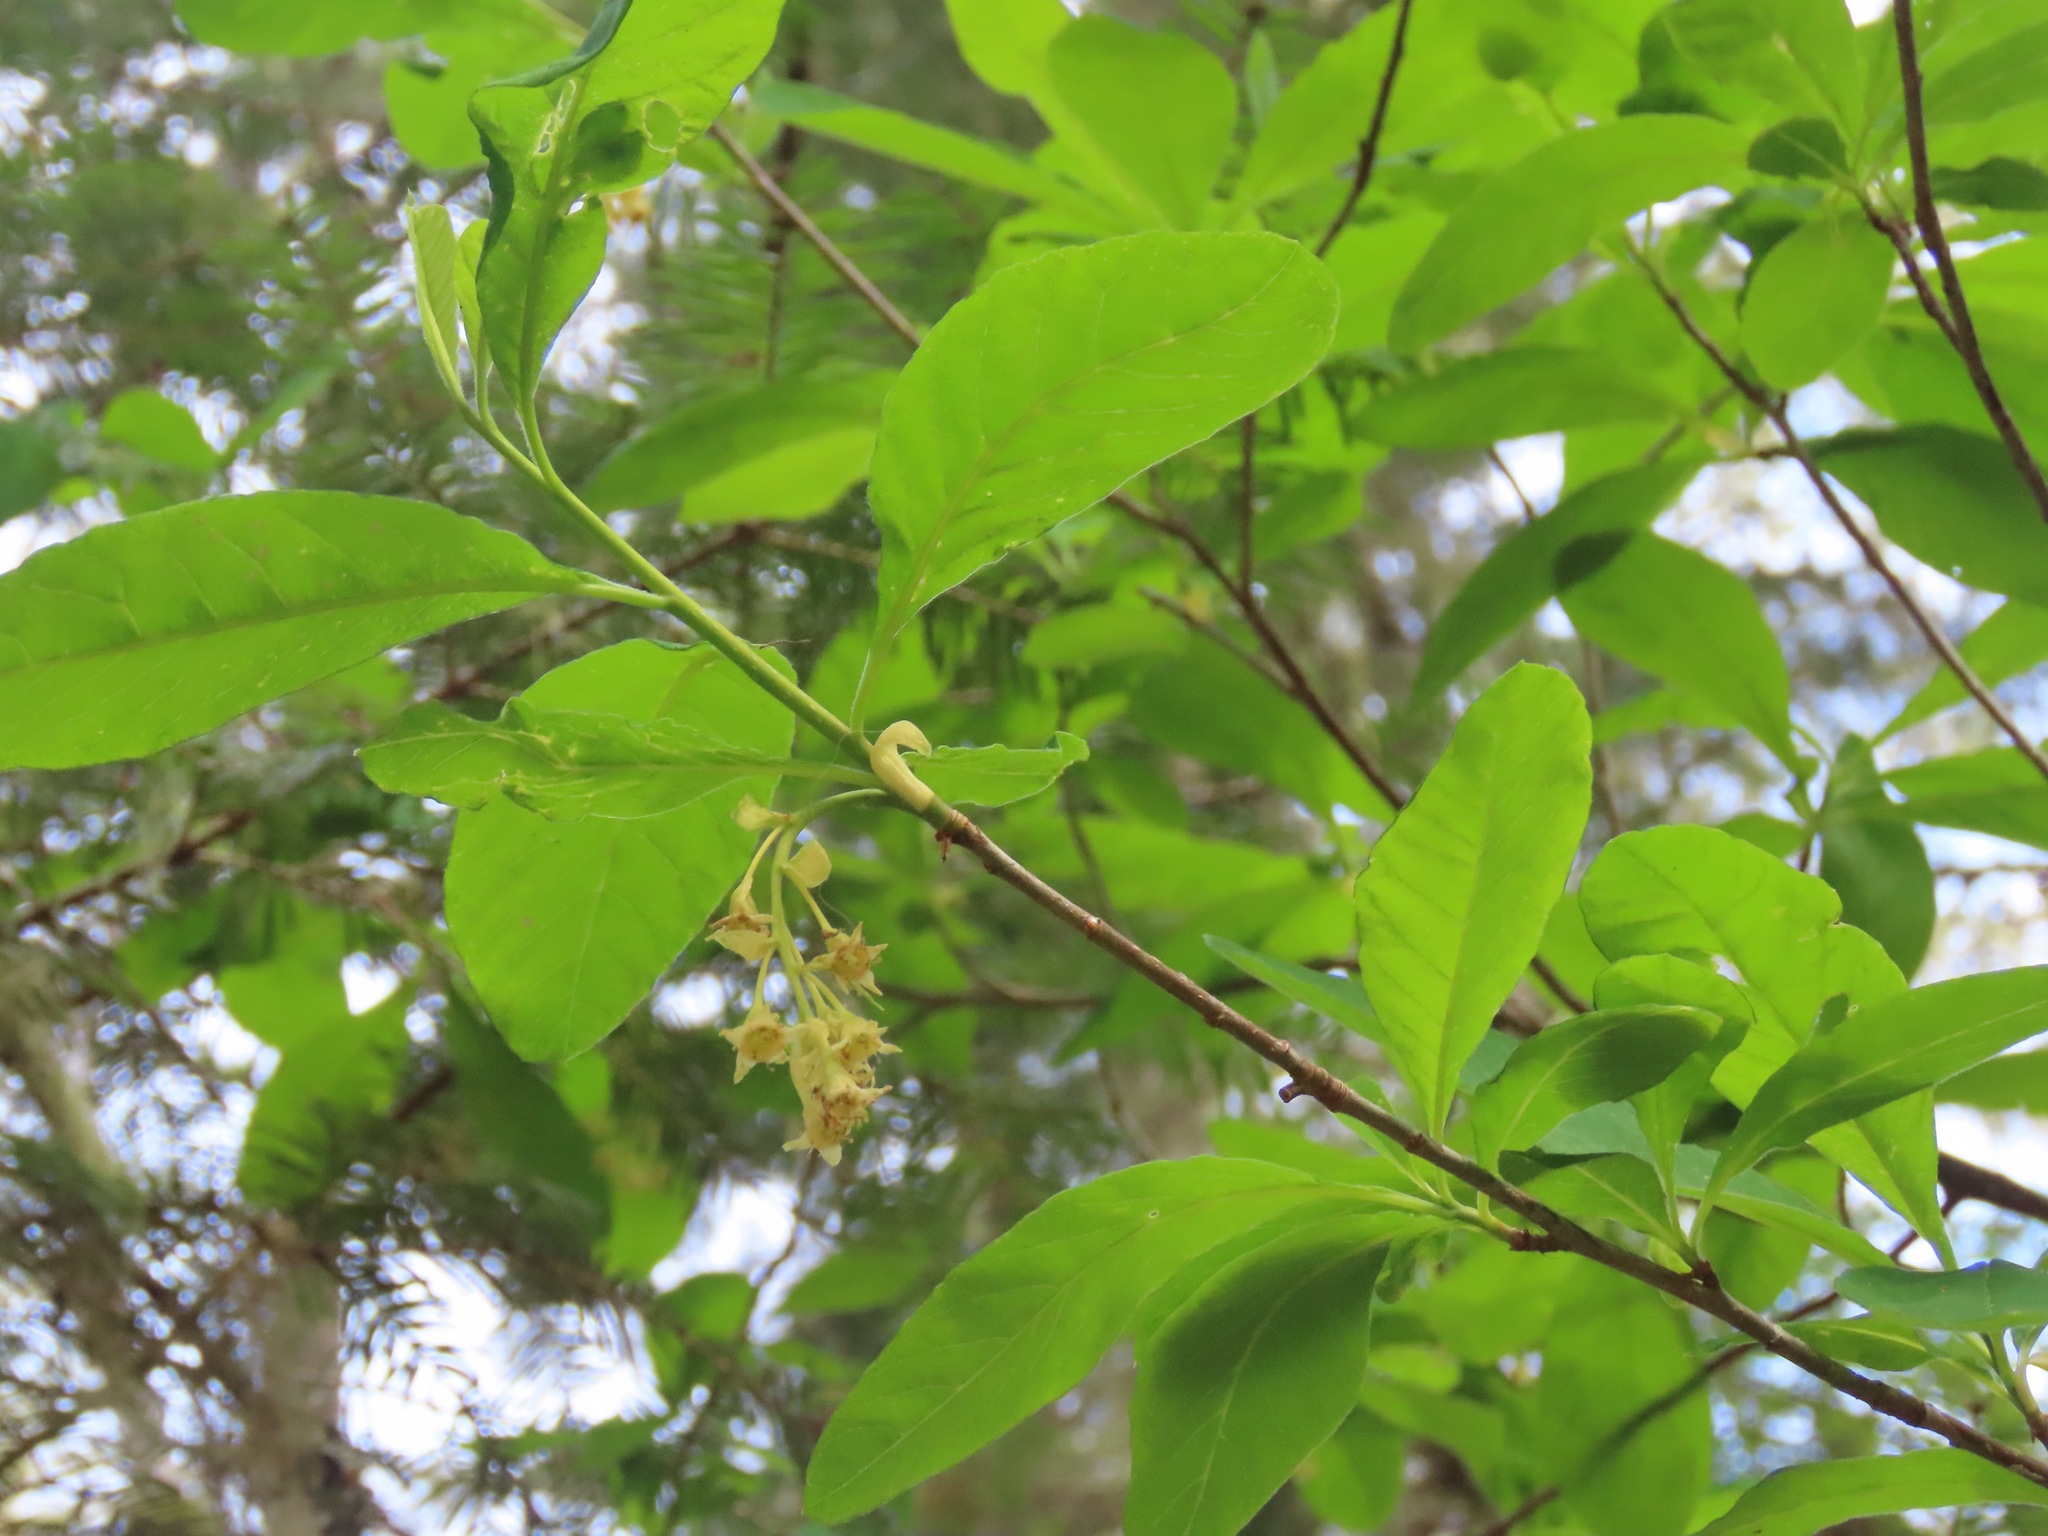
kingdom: Plantae
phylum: Tracheophyta
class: Magnoliopsida
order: Rosales
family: Rosaceae
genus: Oemleria
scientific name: Oemleria cerasiformis
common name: Osoberry
